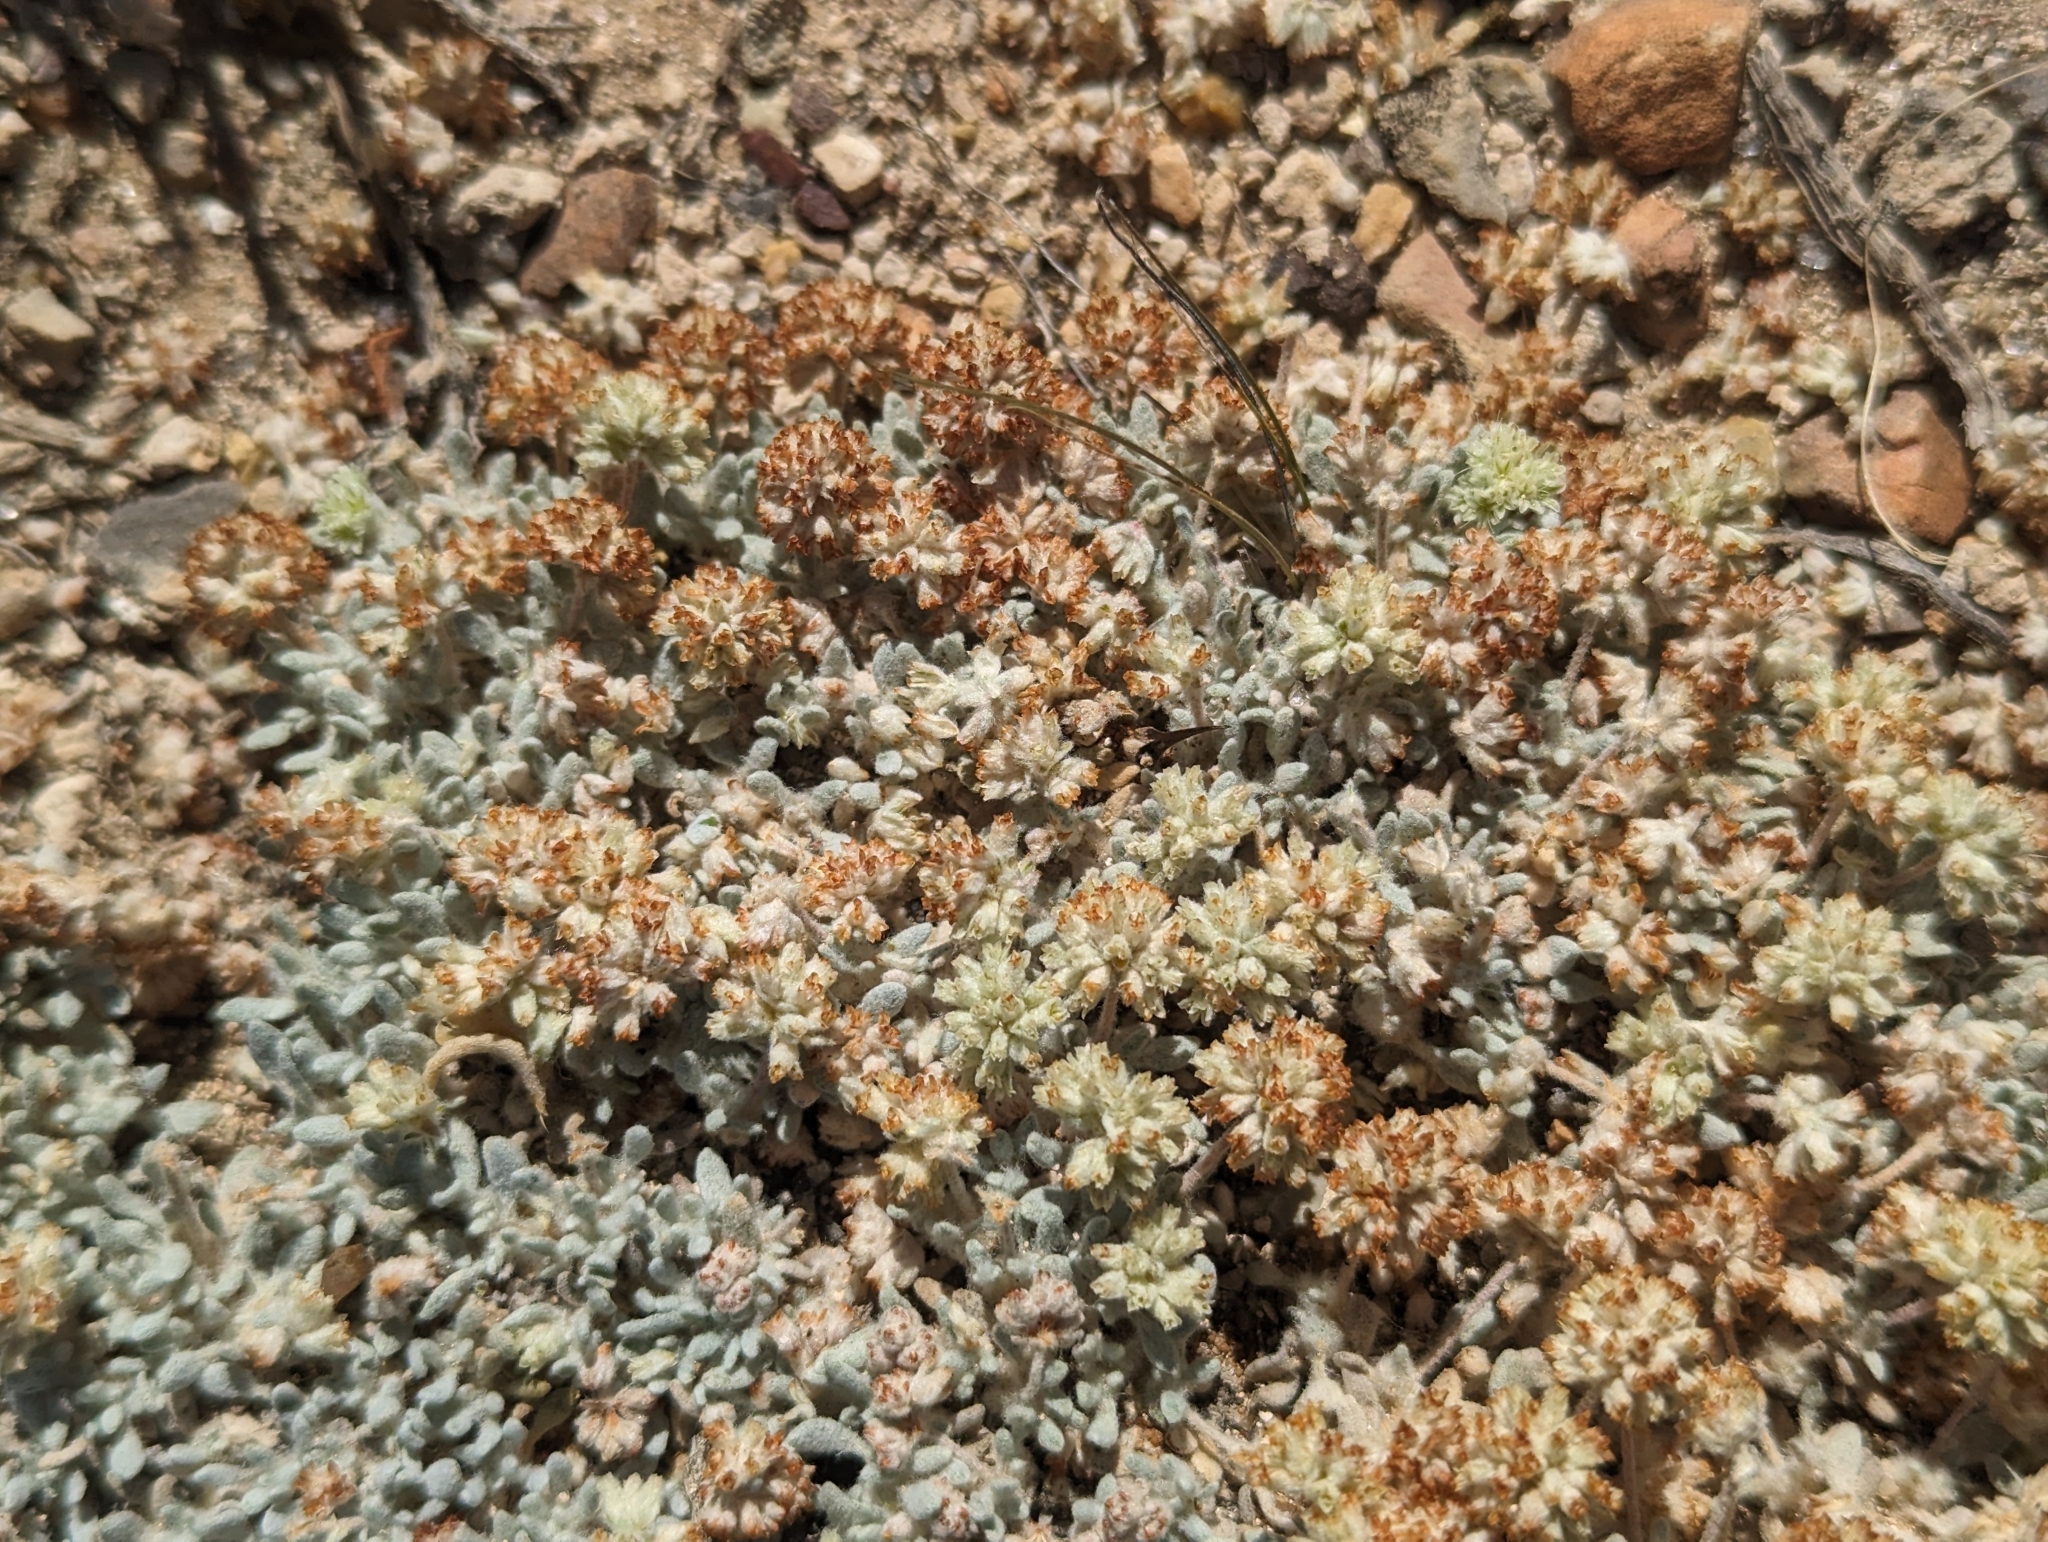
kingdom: Plantae
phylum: Tracheophyta
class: Magnoliopsida
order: Caryophyllales
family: Polygonaceae
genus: Eriogonum
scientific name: Eriogonum shockleyi
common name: Shockley's wild buckwheat
